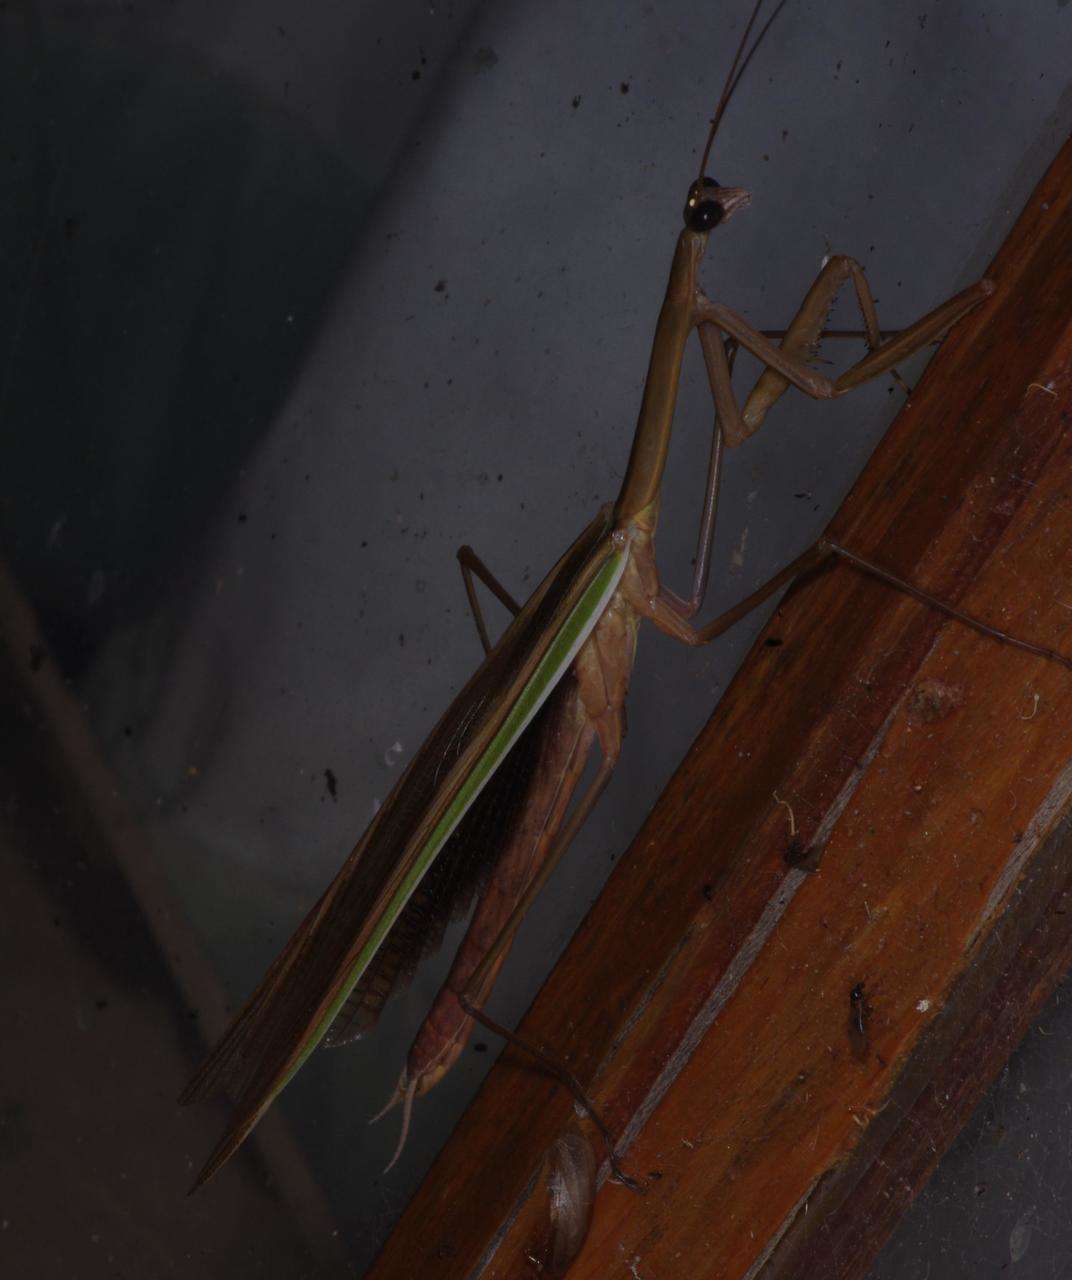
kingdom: Animalia
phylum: Arthropoda
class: Insecta
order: Mantodea
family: Mantidae
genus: Tenodera
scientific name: Tenodera australasiae
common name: Purple-winged mantis
